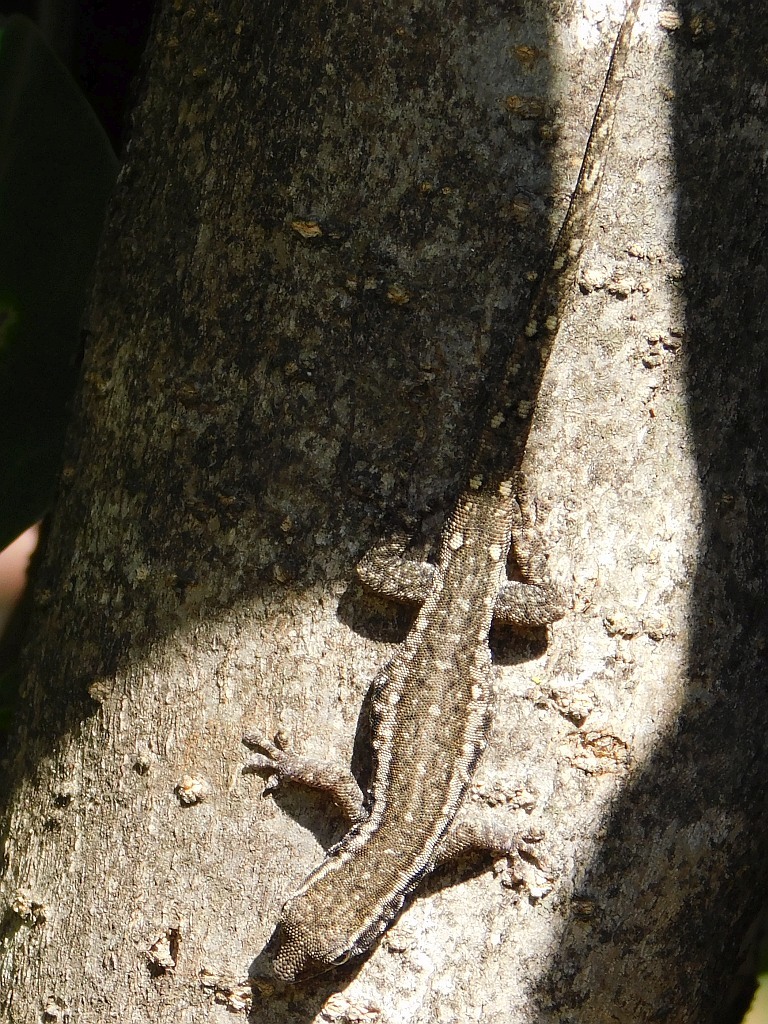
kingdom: Animalia
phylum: Chordata
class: Squamata
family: Gekkonidae
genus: Lygodactylus
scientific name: Lygodactylus capensis
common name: Cape dwarf gecko
